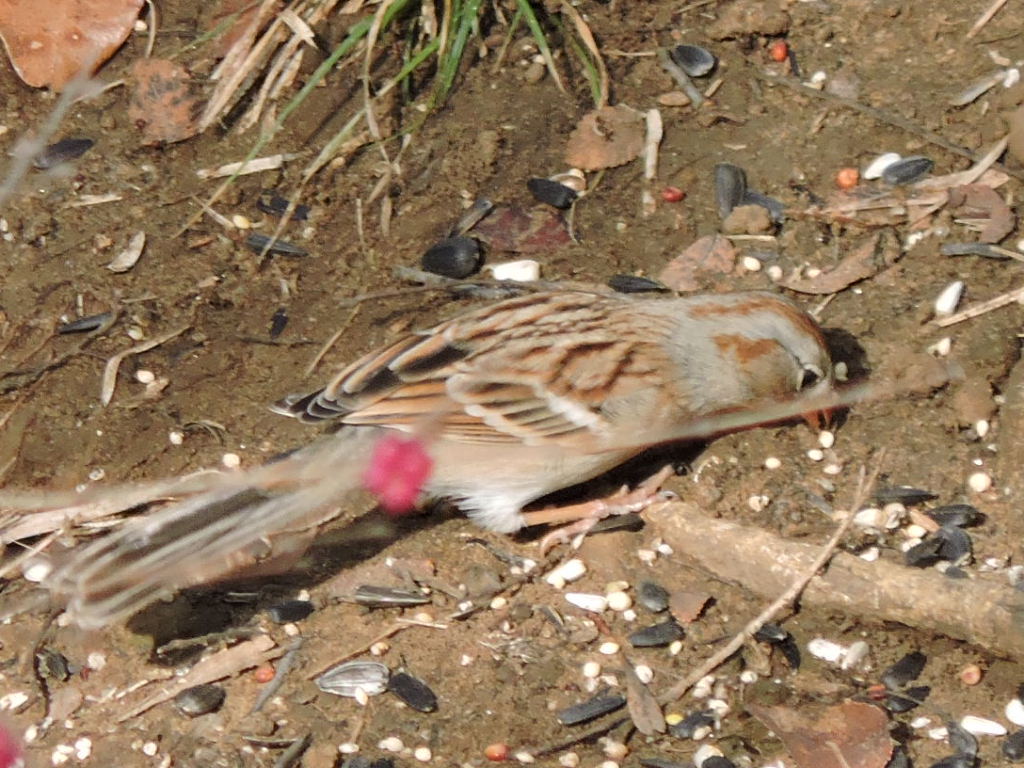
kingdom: Animalia
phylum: Chordata
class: Aves
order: Passeriformes
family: Passerellidae
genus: Spizella
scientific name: Spizella pusilla
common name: Field sparrow
